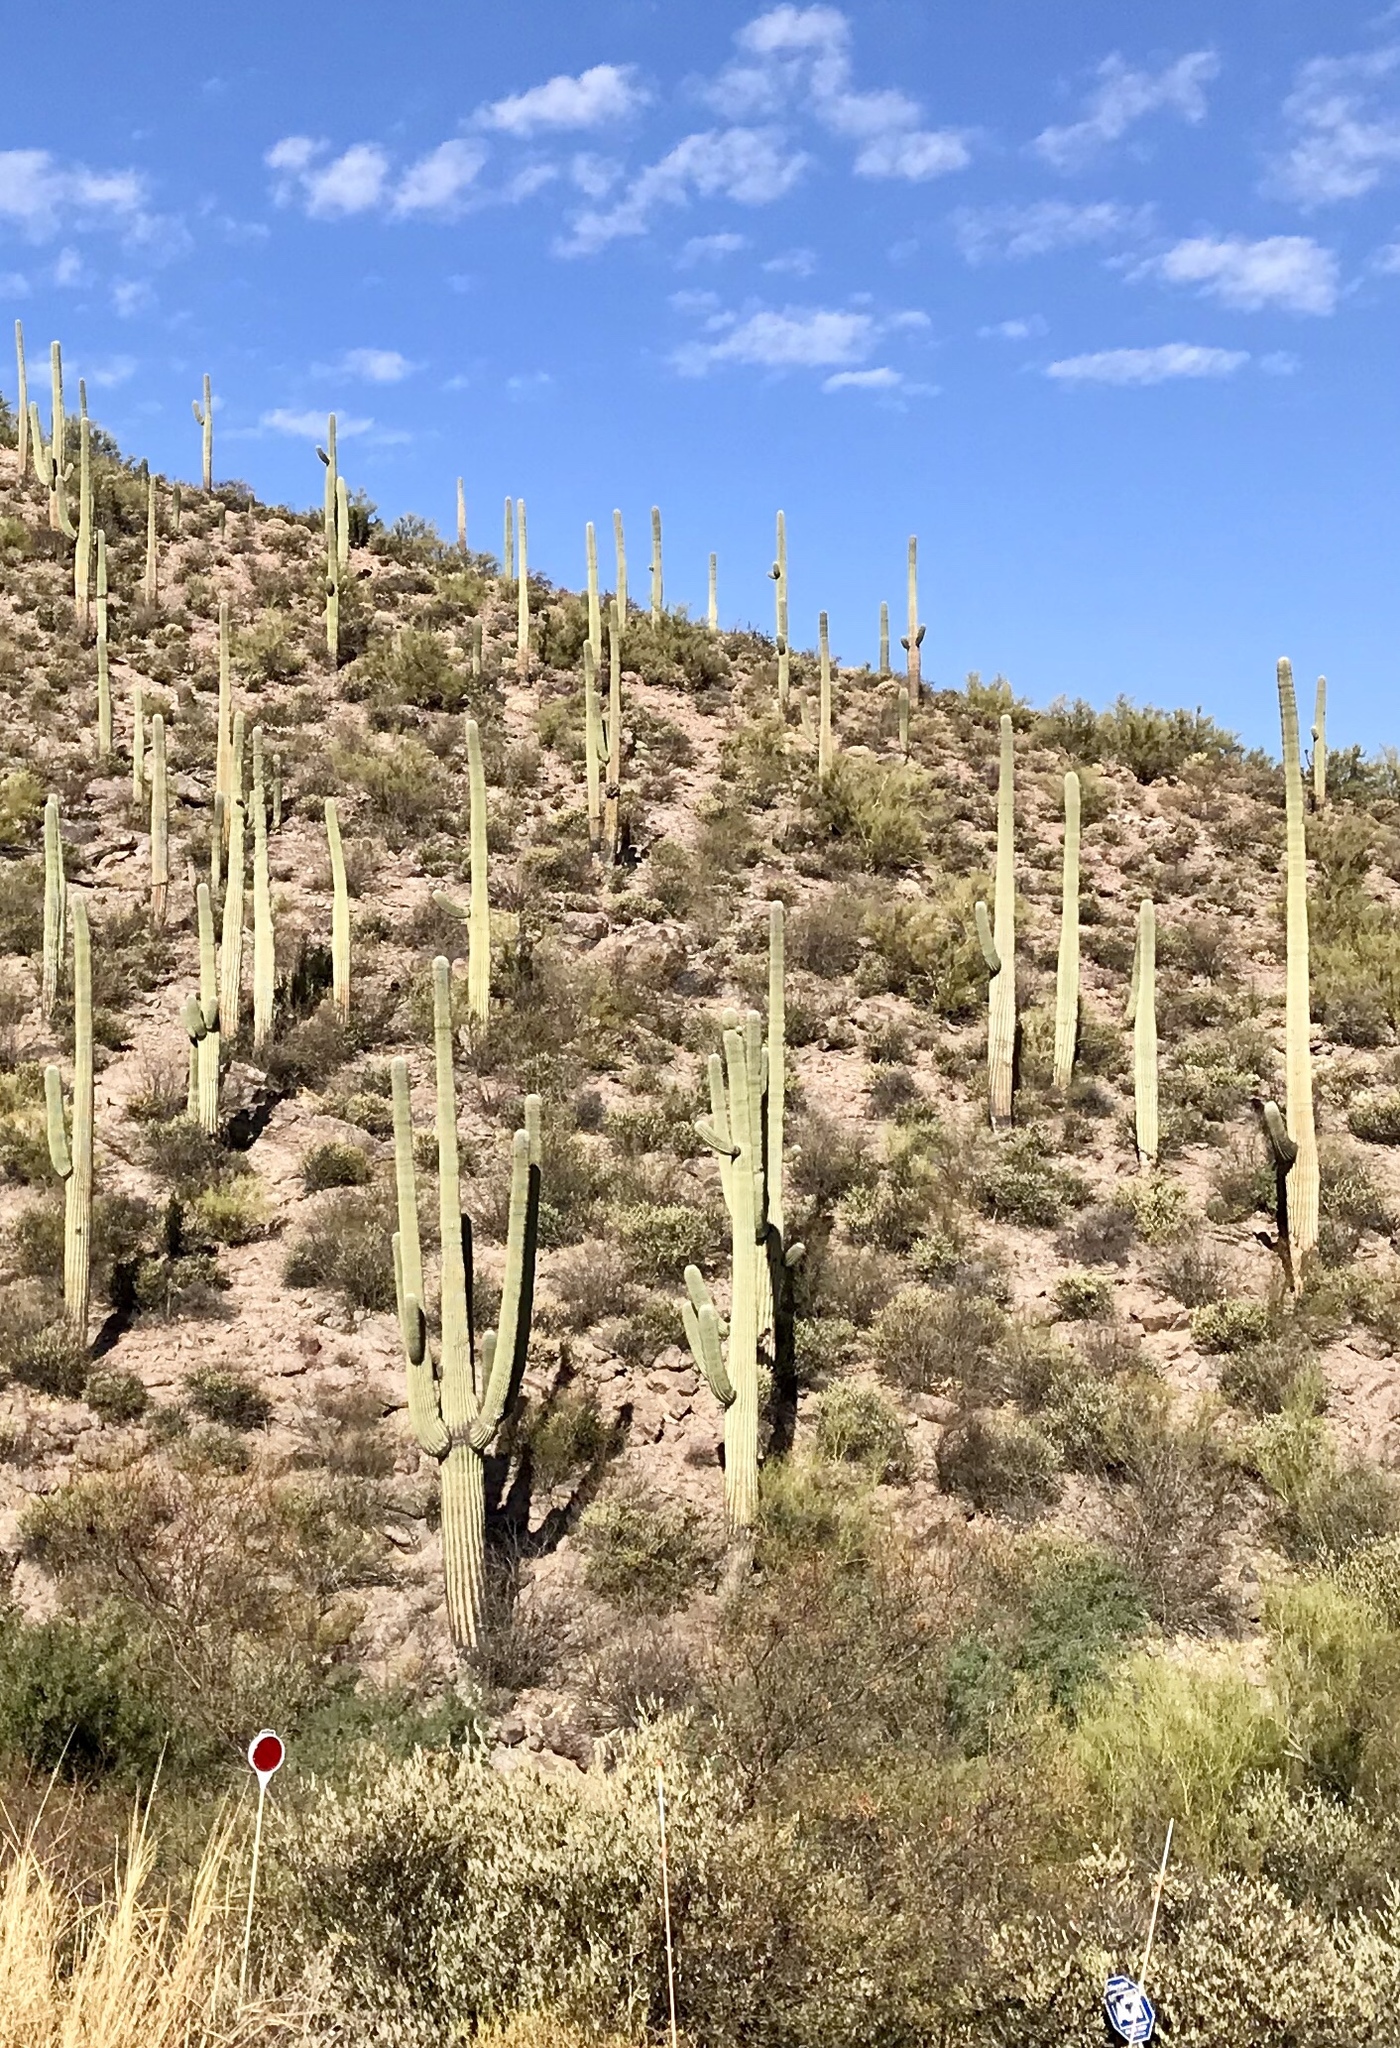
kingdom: Plantae
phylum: Tracheophyta
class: Magnoliopsida
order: Caryophyllales
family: Cactaceae
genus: Carnegiea
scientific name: Carnegiea gigantea
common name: Saguaro
